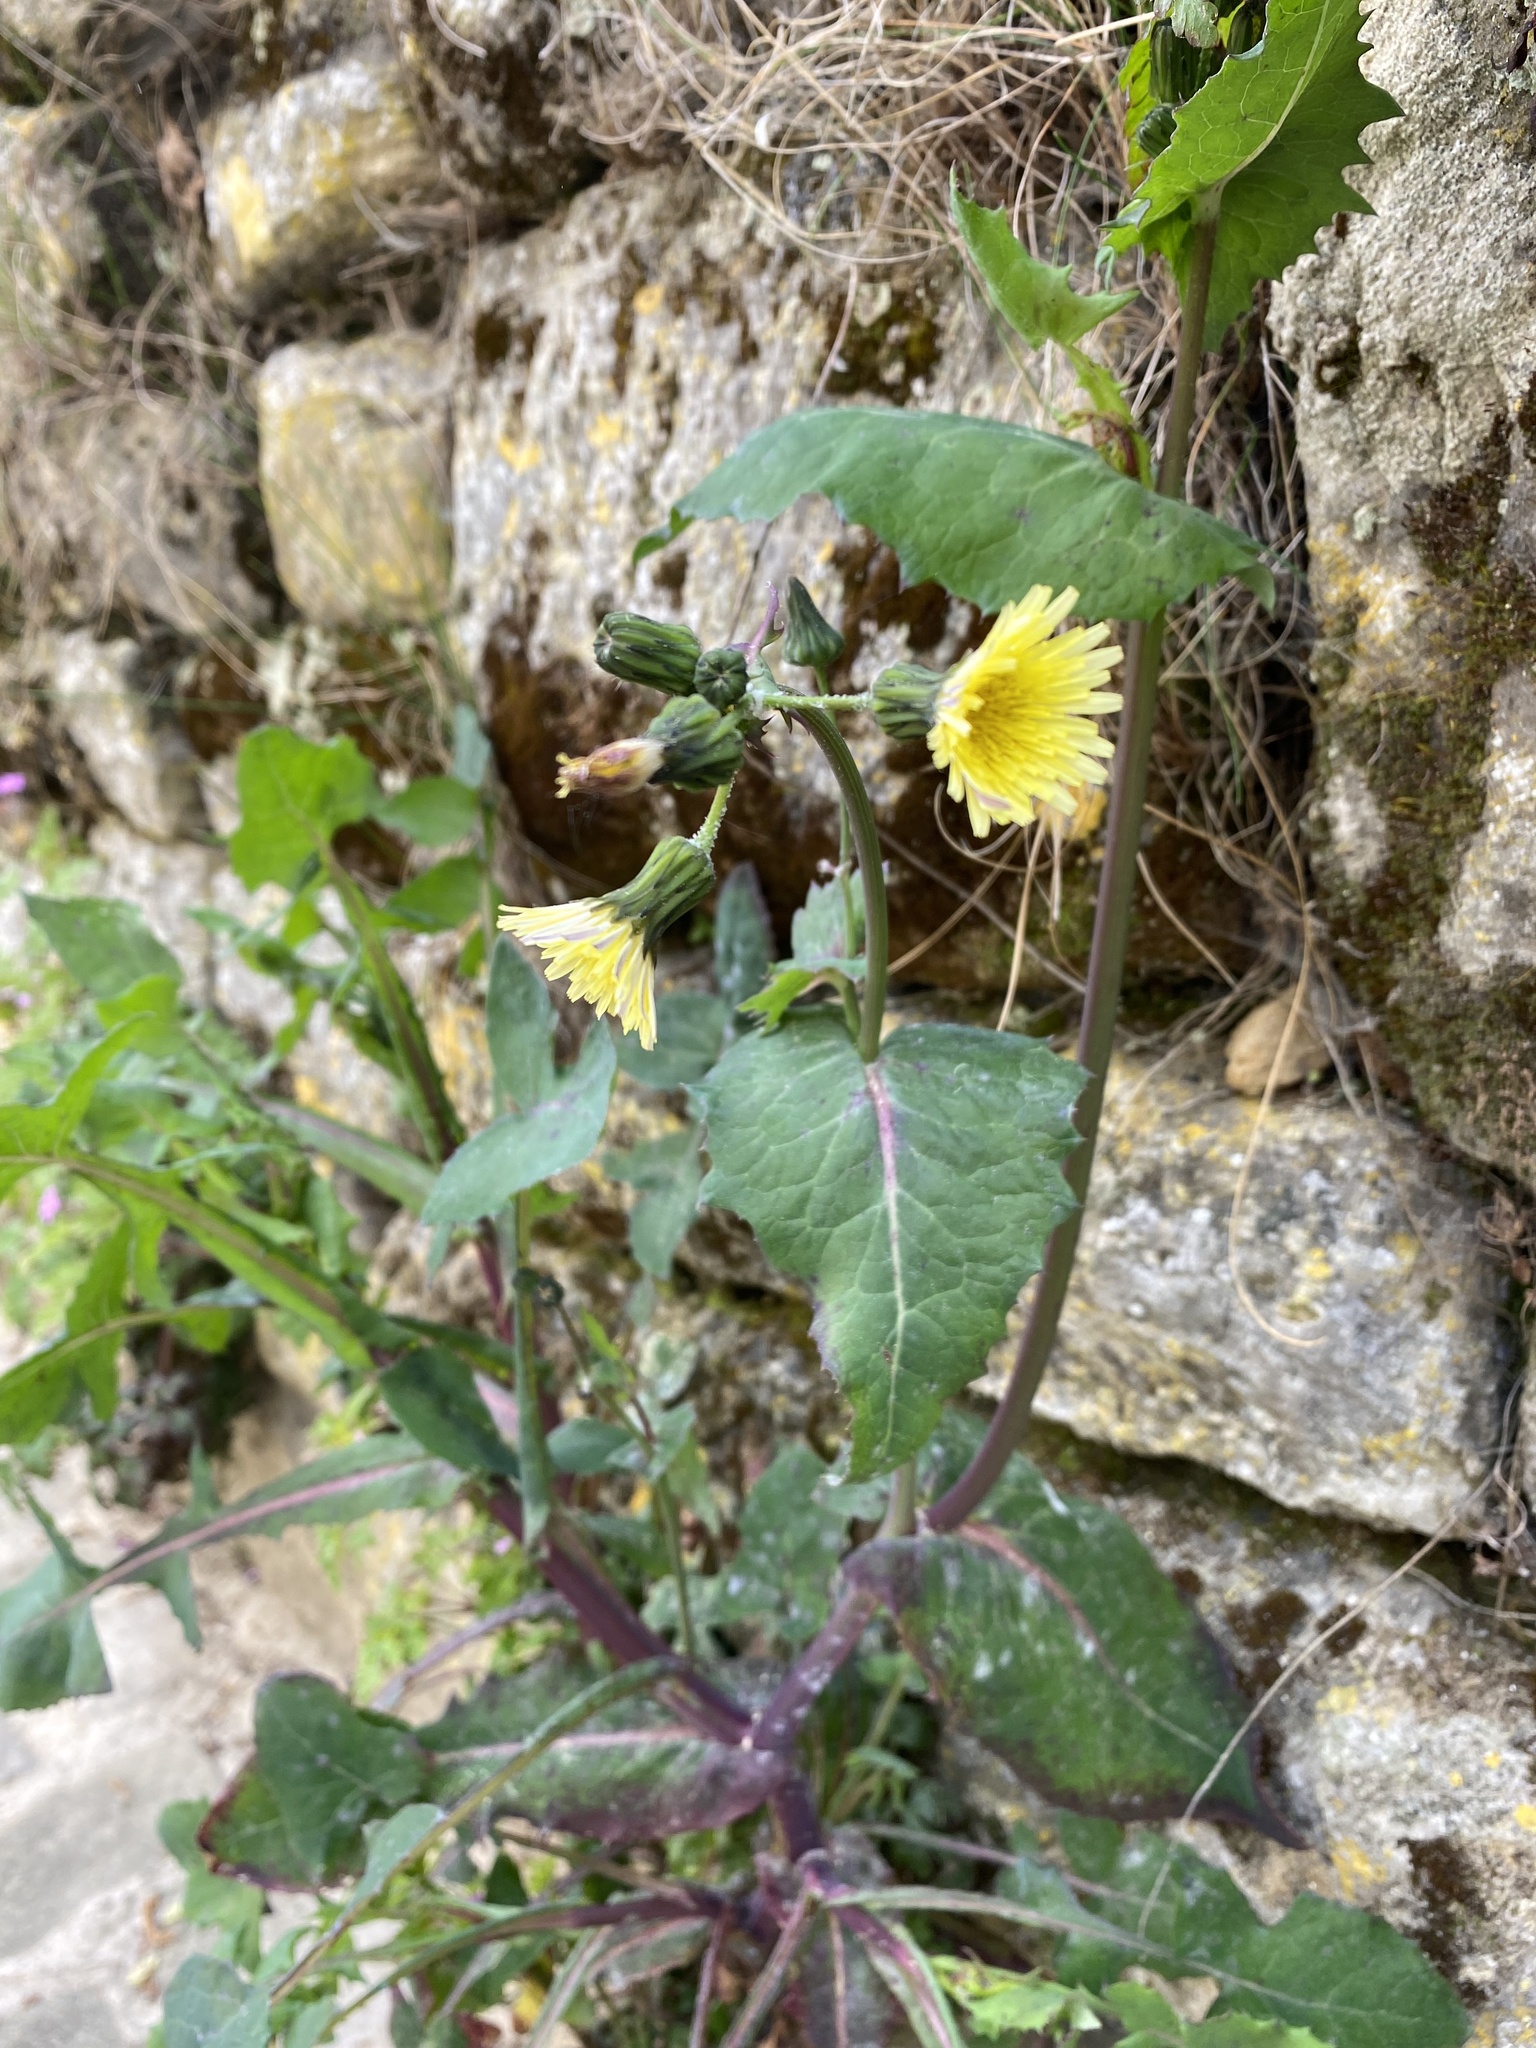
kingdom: Plantae
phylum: Tracheophyta
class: Magnoliopsida
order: Asterales
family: Asteraceae
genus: Sonchus
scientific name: Sonchus oleraceus
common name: Common sowthistle
